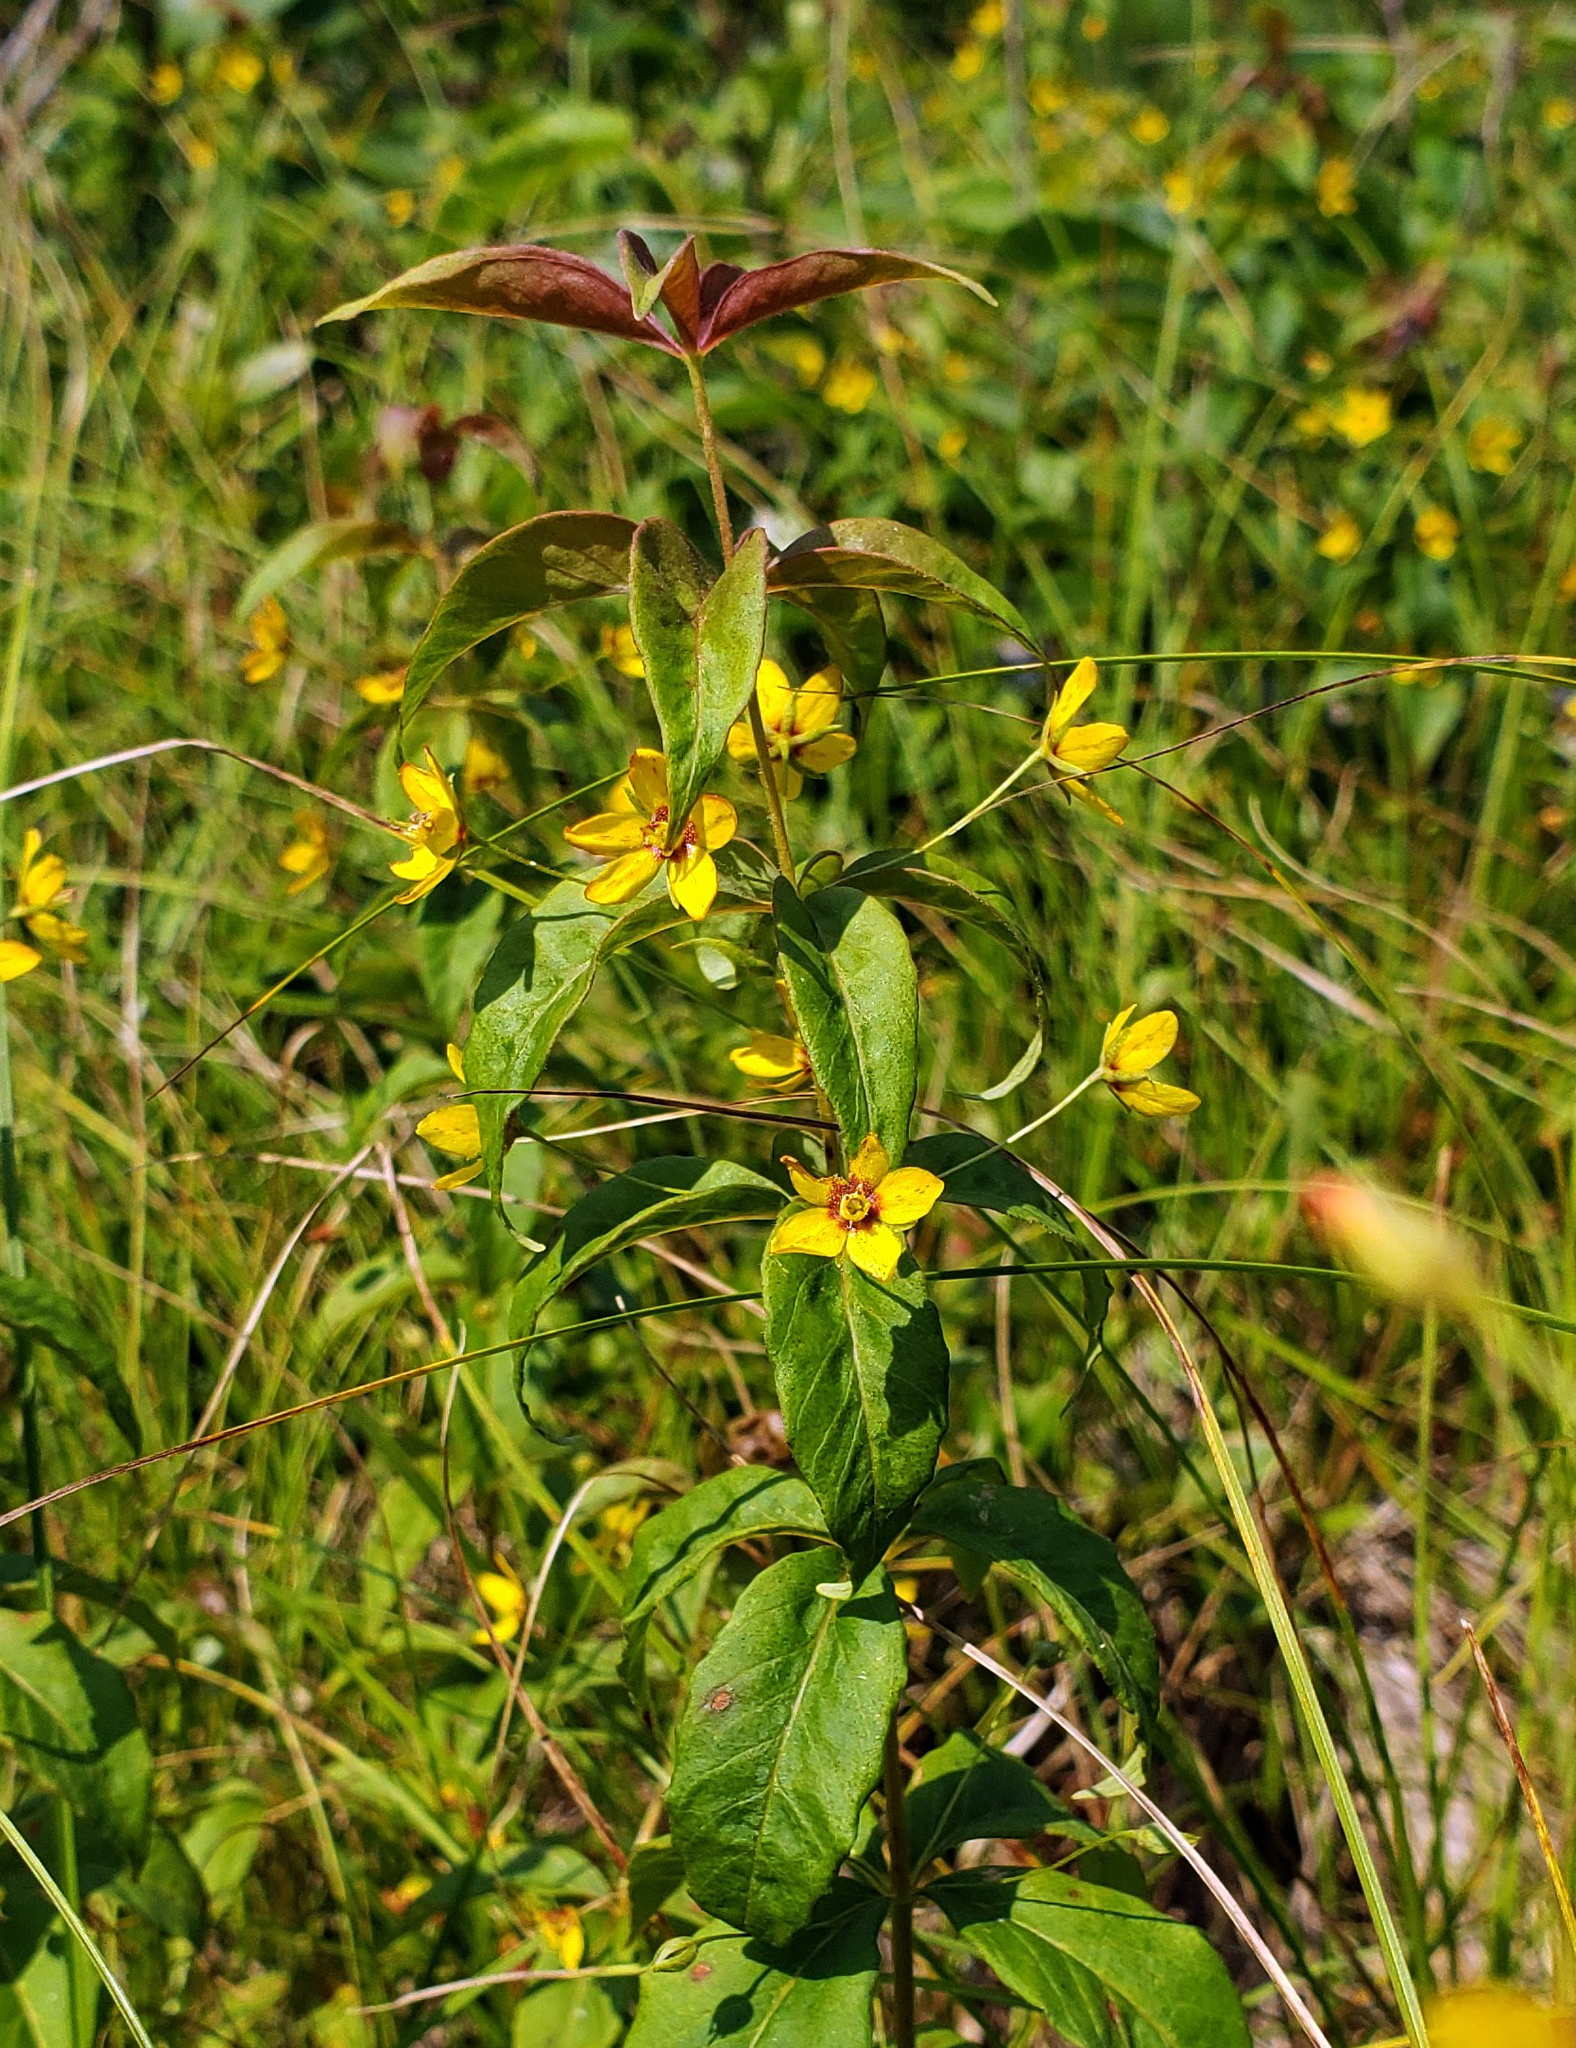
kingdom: Plantae
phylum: Tracheophyta
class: Magnoliopsida
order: Ericales
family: Primulaceae
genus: Lysimachia
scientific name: Lysimachia quadrifolia
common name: Whorled loosestrife
